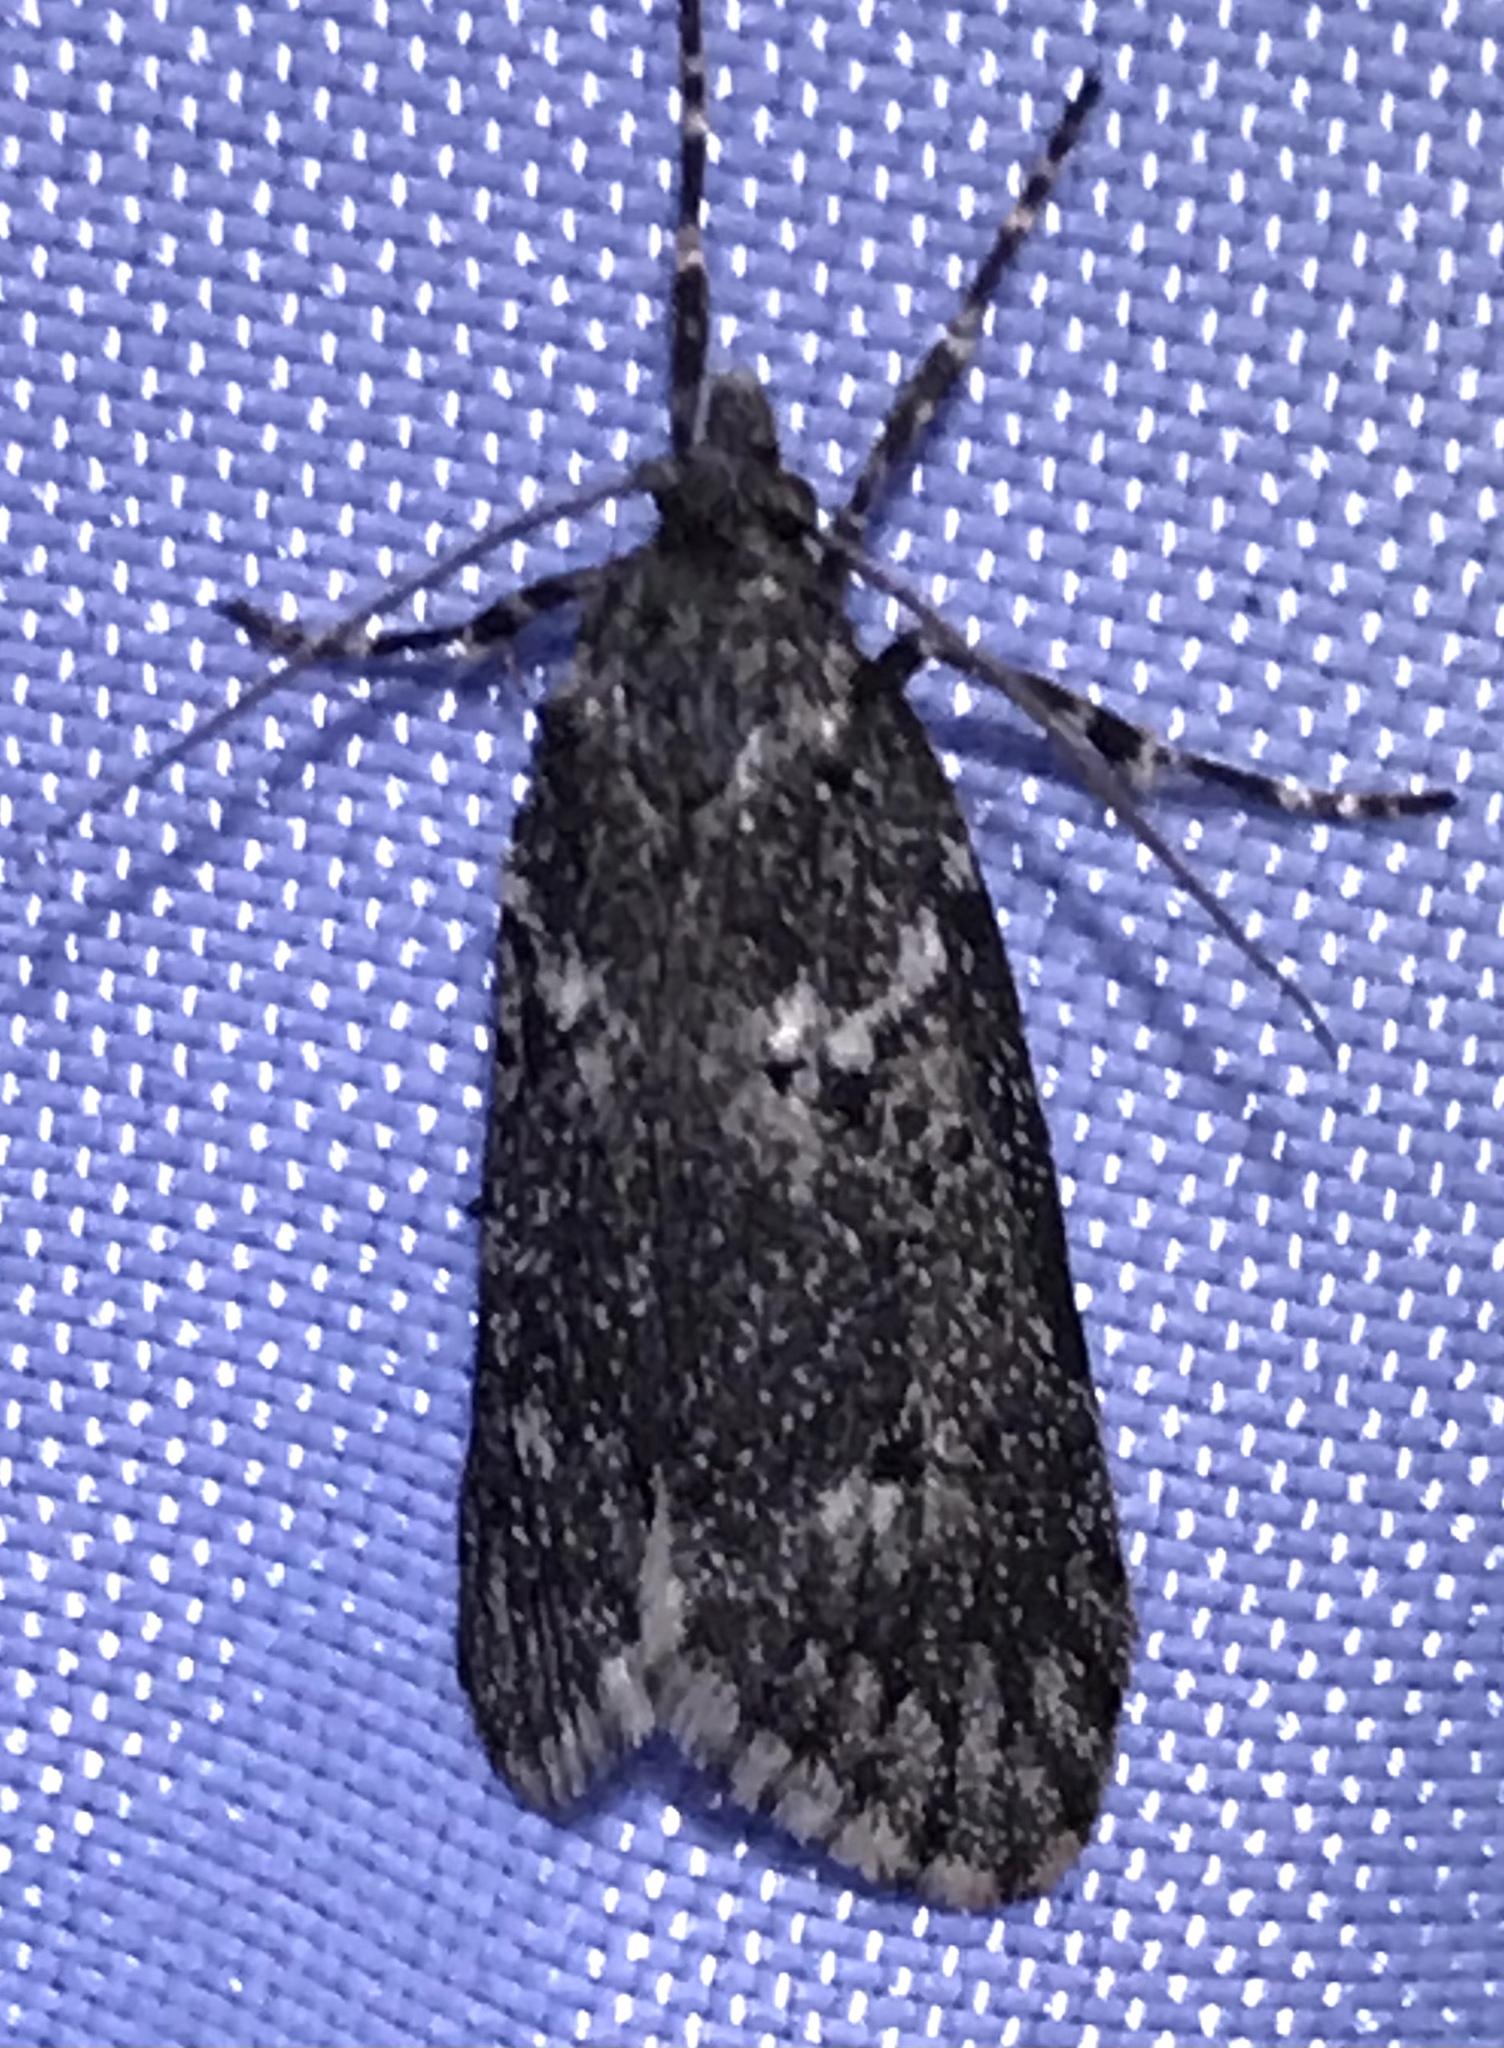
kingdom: Animalia
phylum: Arthropoda
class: Insecta
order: Lepidoptera
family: Lypusidae
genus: Diurnea
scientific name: Diurnea fagella
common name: March tubic
